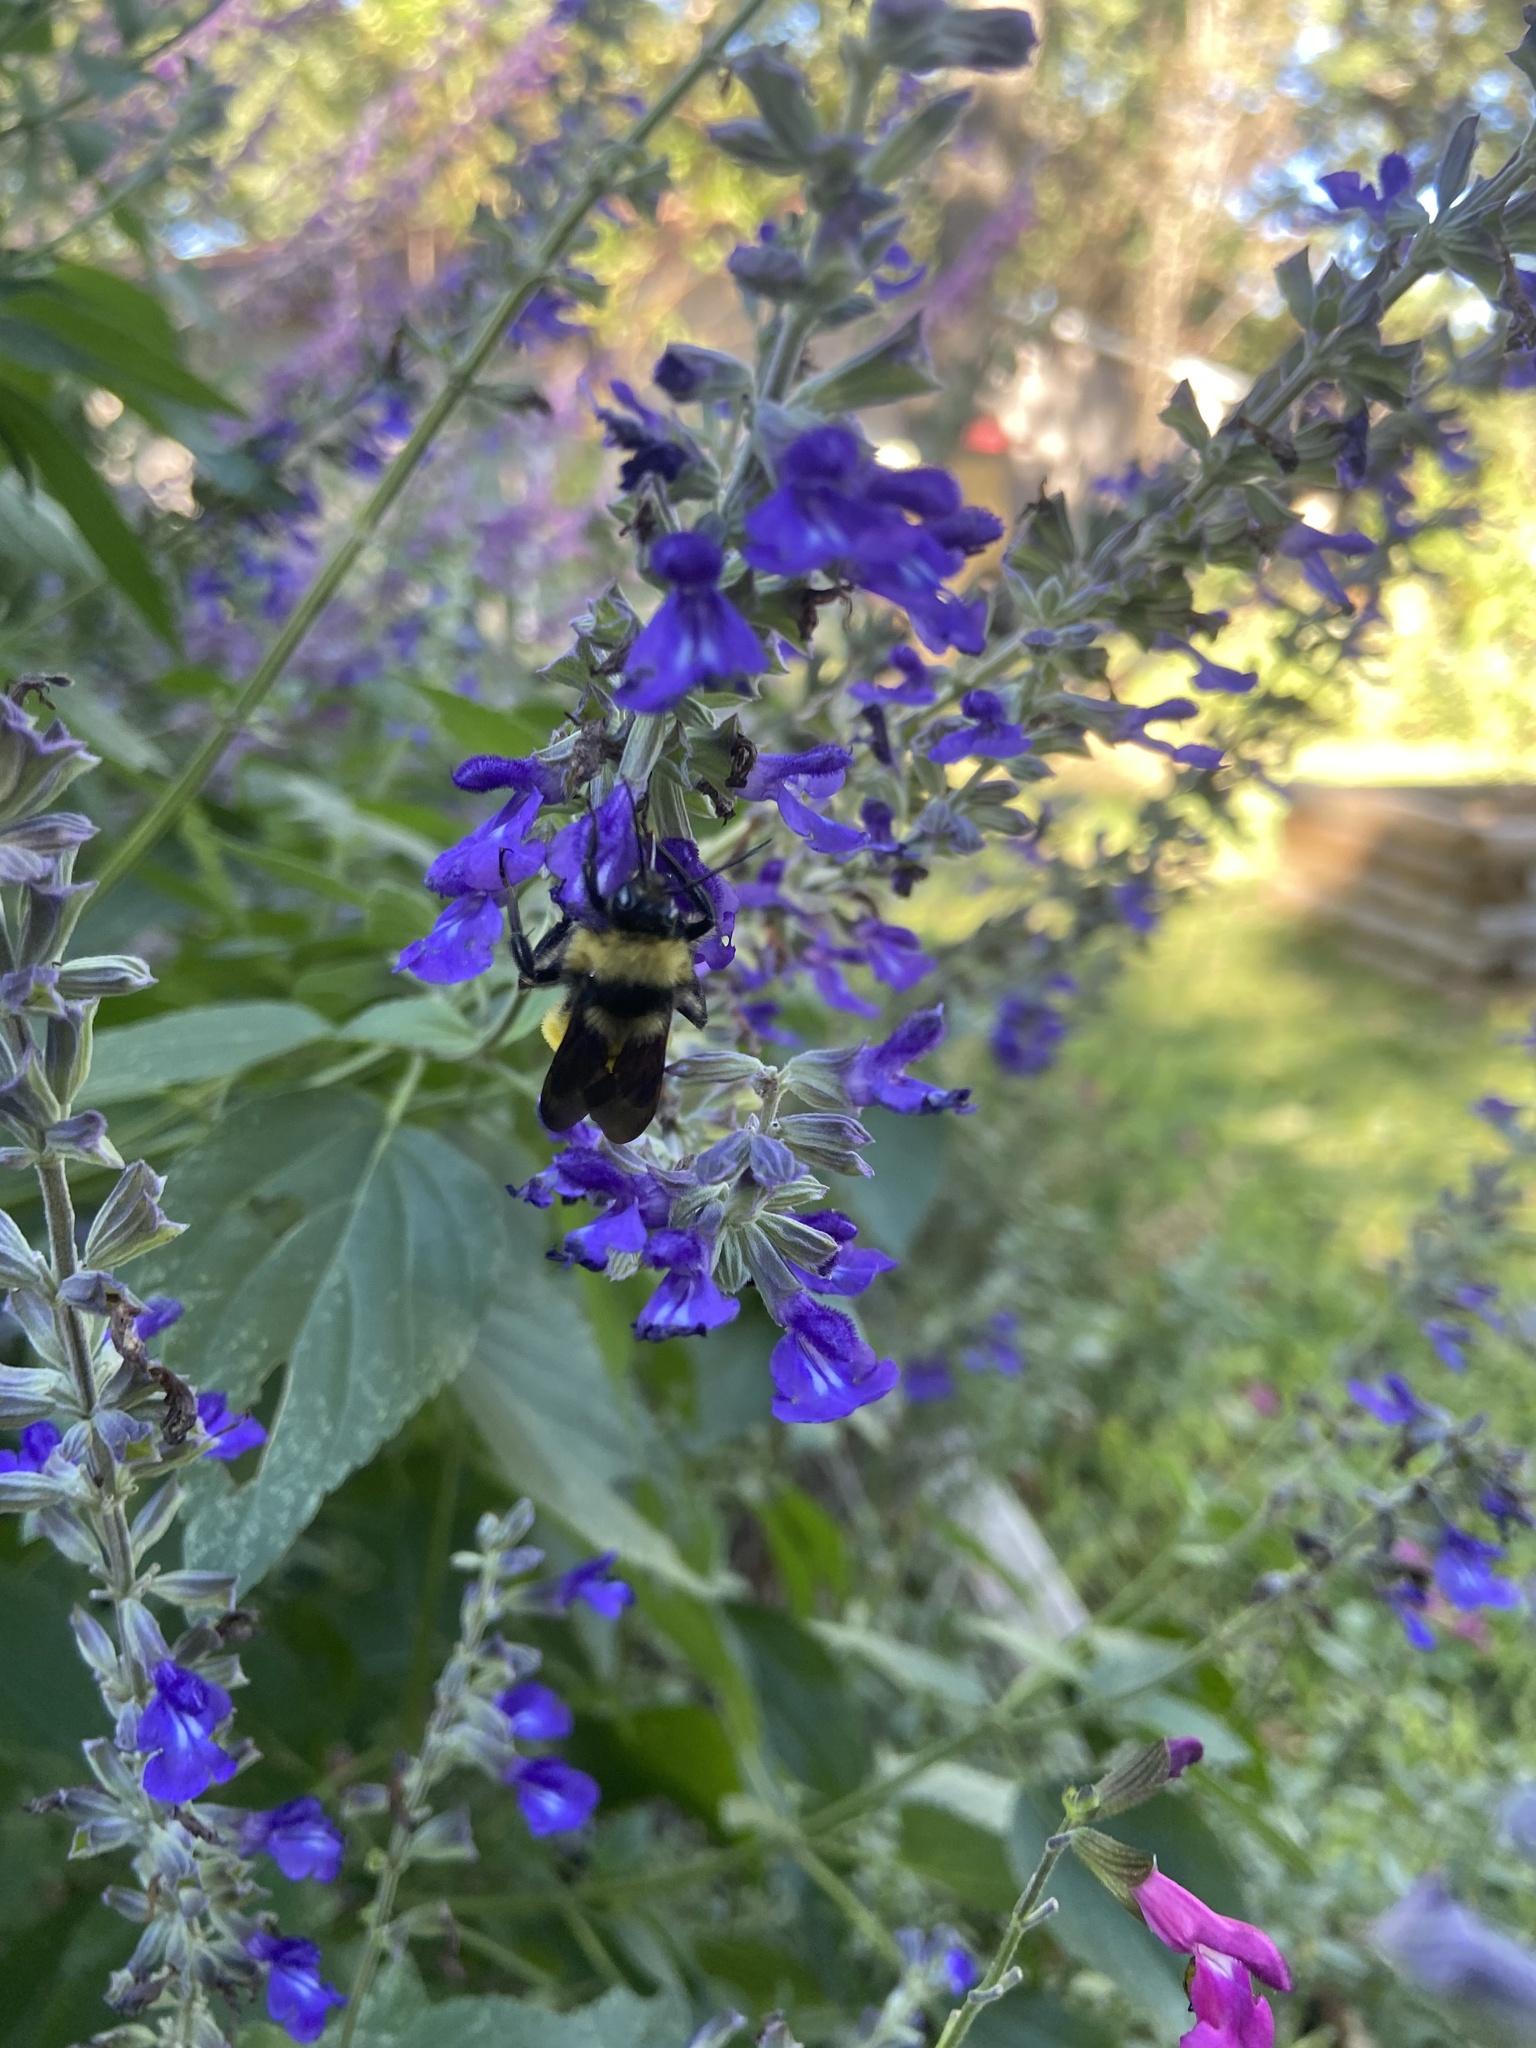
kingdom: Animalia
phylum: Arthropoda
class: Insecta
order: Hymenoptera
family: Apidae
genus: Bombus
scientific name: Bombus pensylvanicus
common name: Bumble bee
